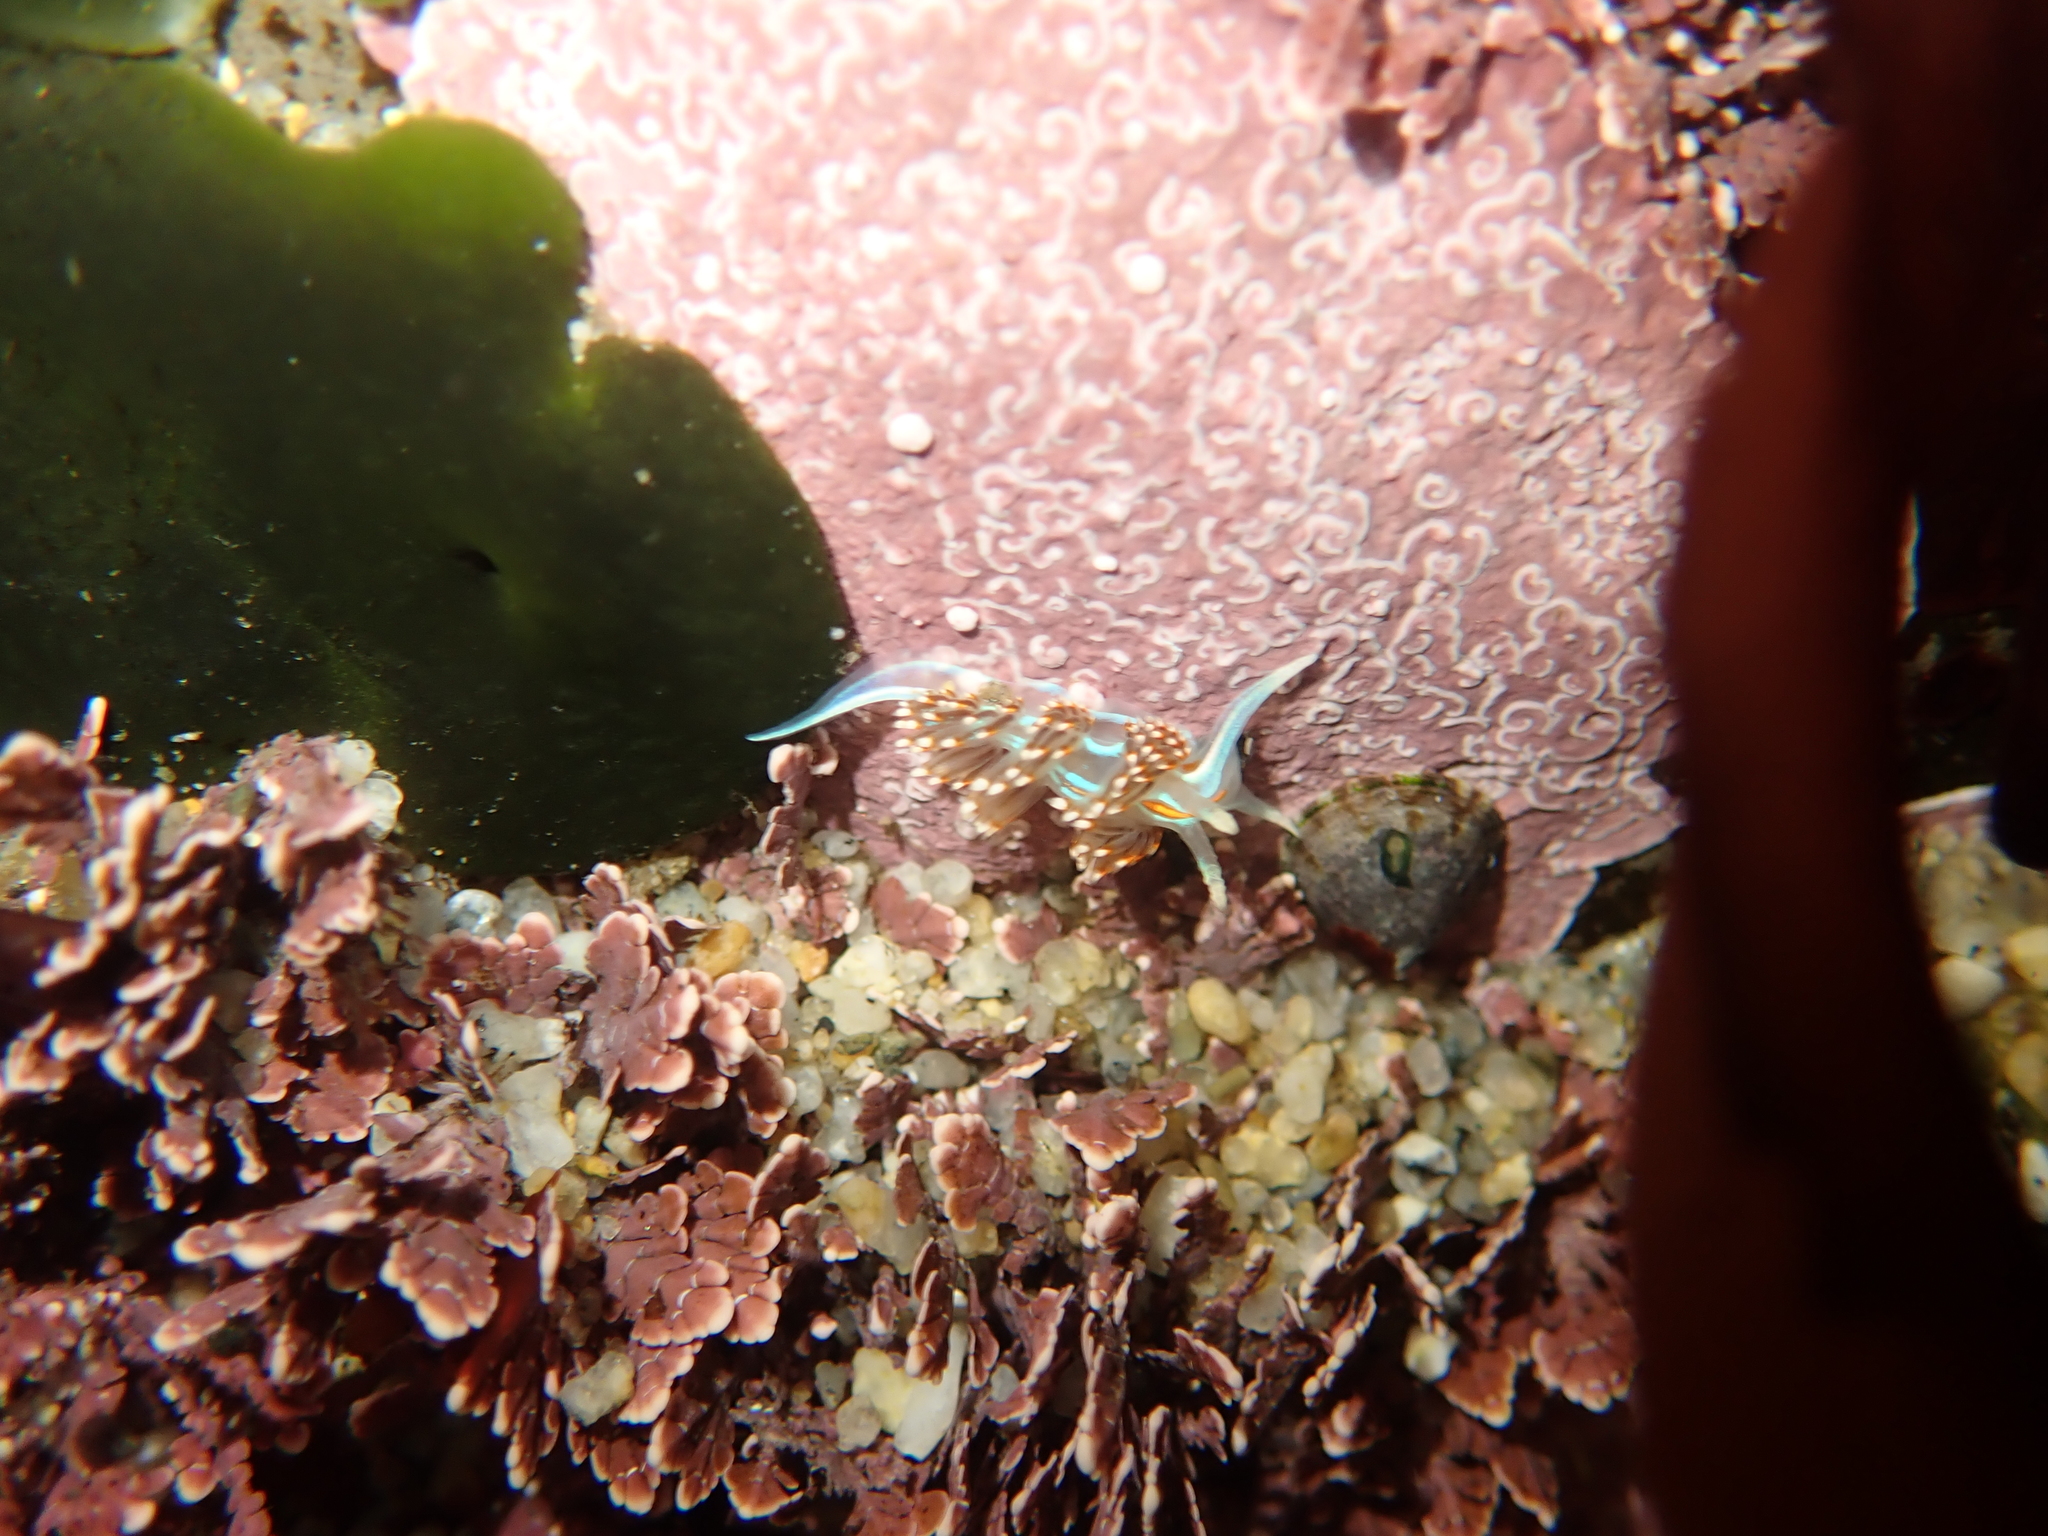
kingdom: Animalia
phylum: Mollusca
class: Gastropoda
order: Nudibranchia
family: Myrrhinidae
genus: Hermissenda
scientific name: Hermissenda opalescens
